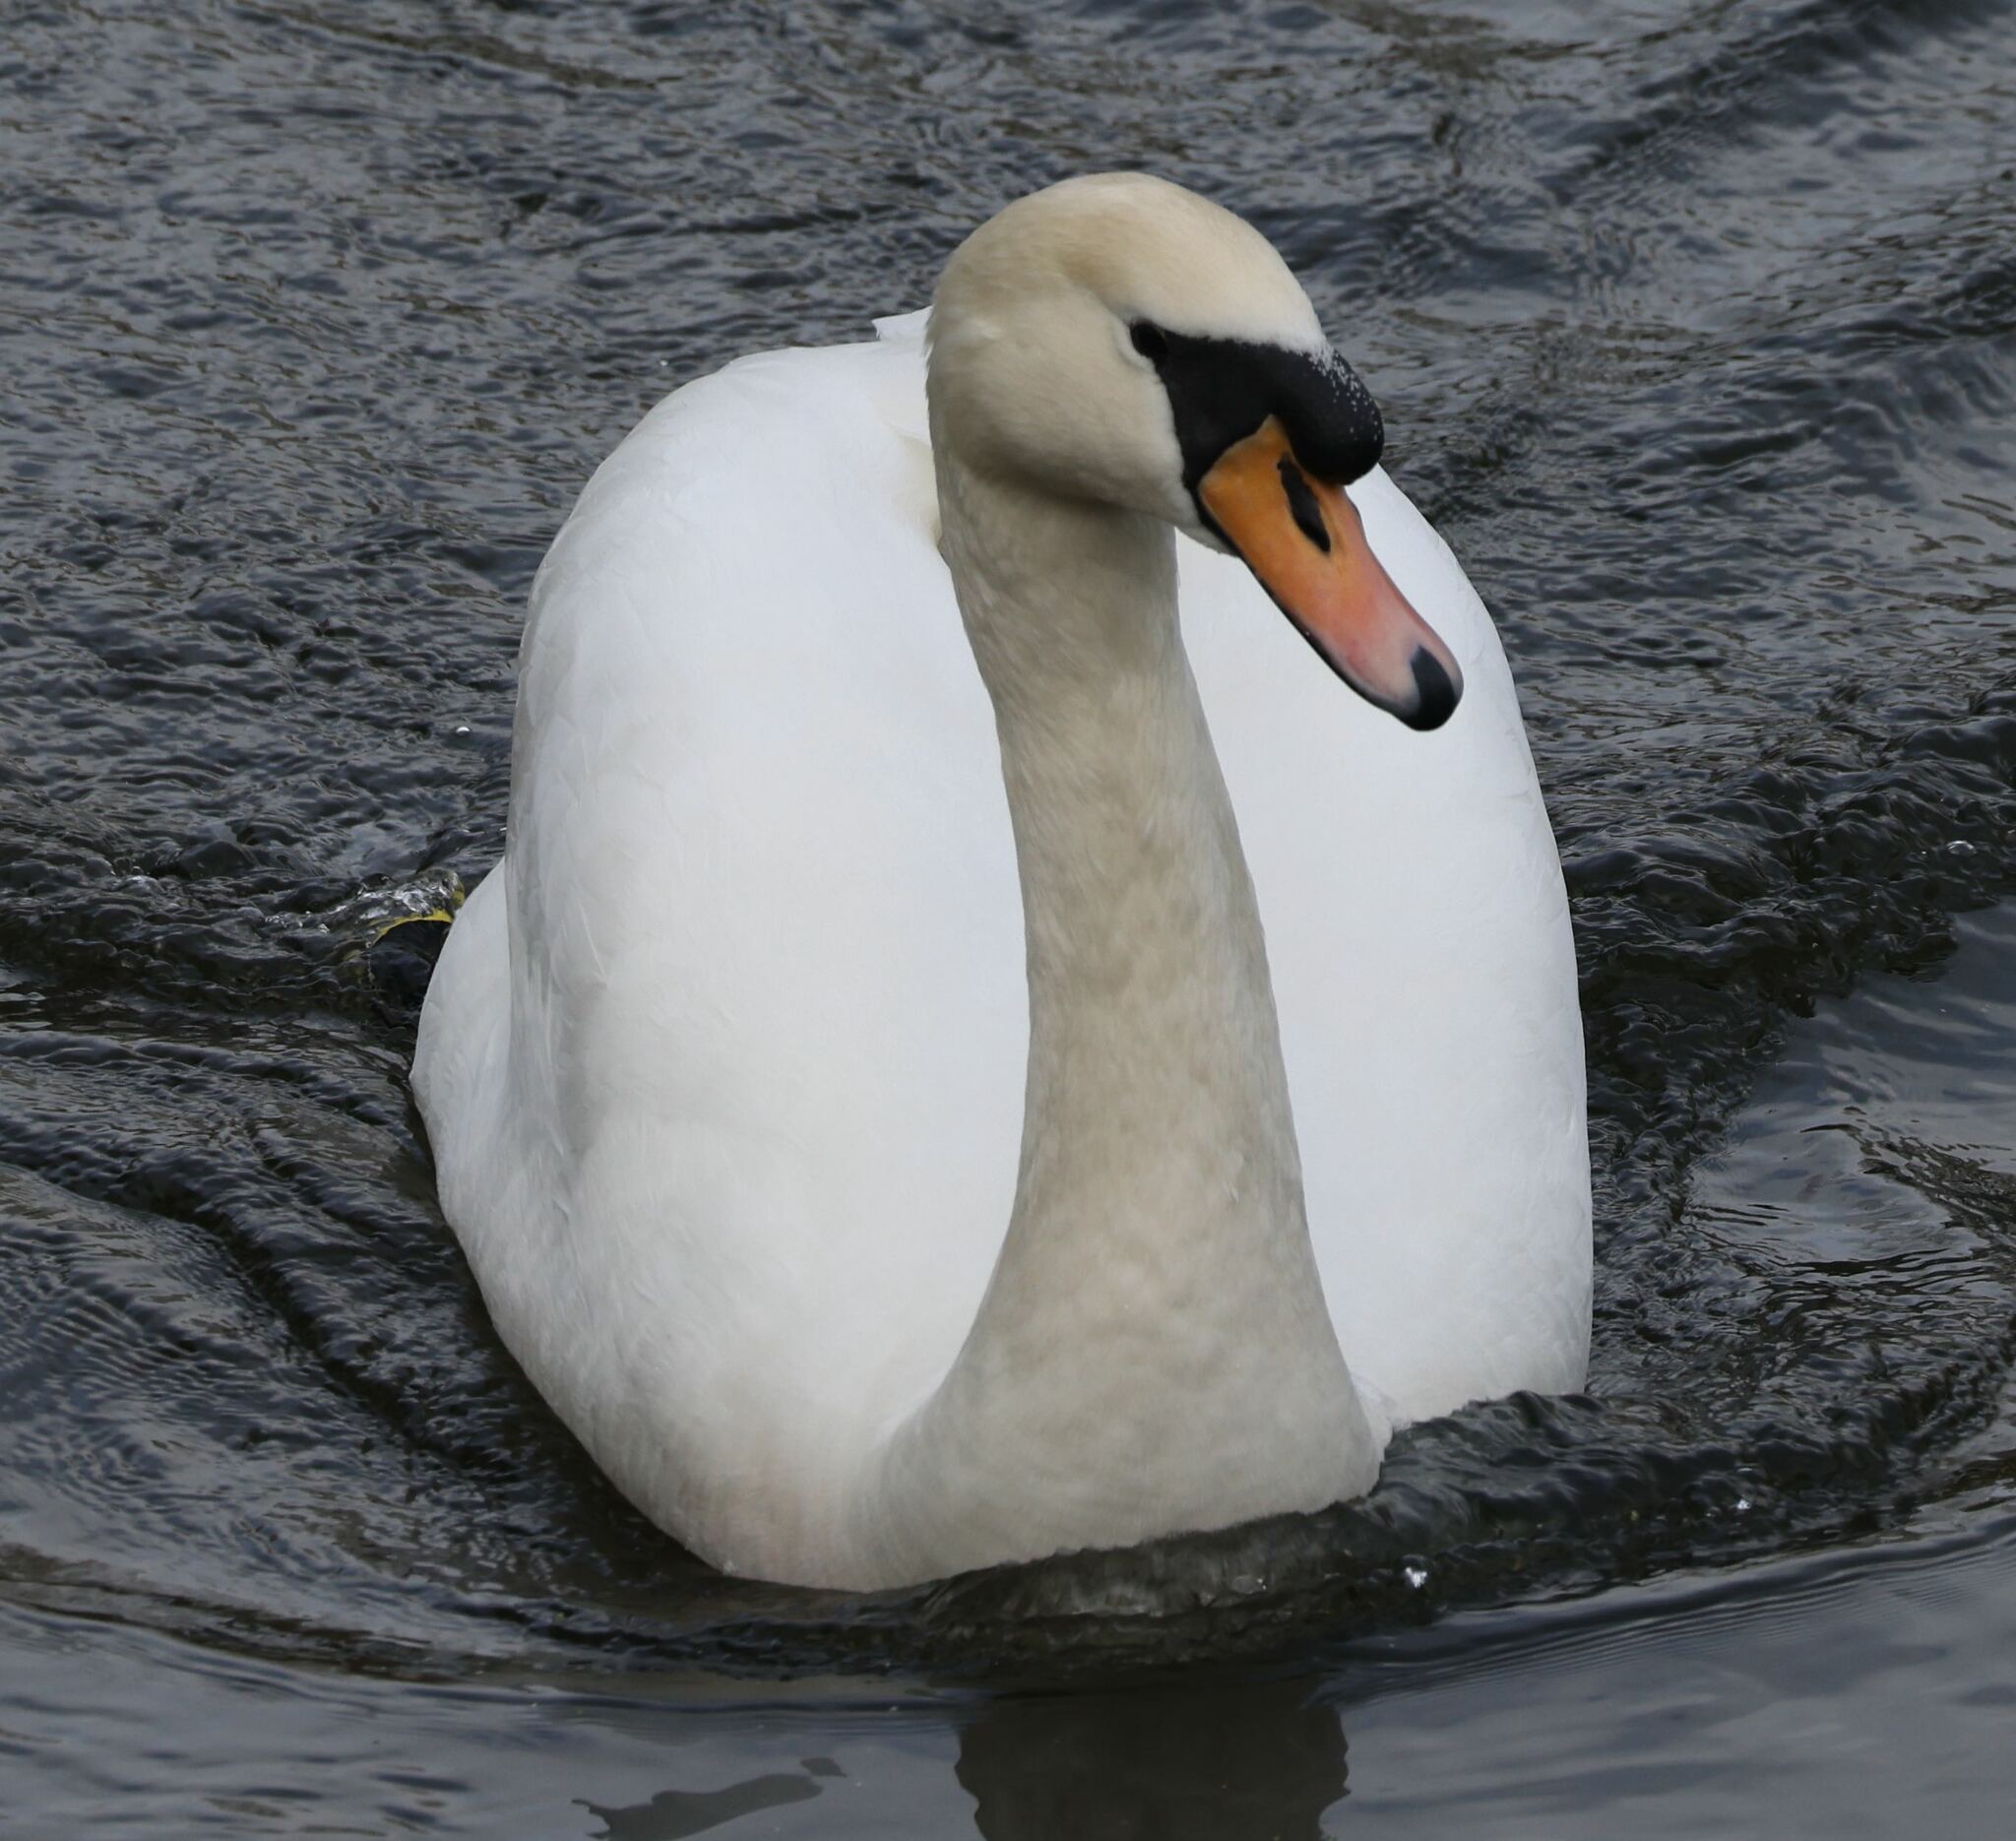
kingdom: Animalia
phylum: Chordata
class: Aves
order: Anseriformes
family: Anatidae
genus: Cygnus
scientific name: Cygnus olor
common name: Mute swan
